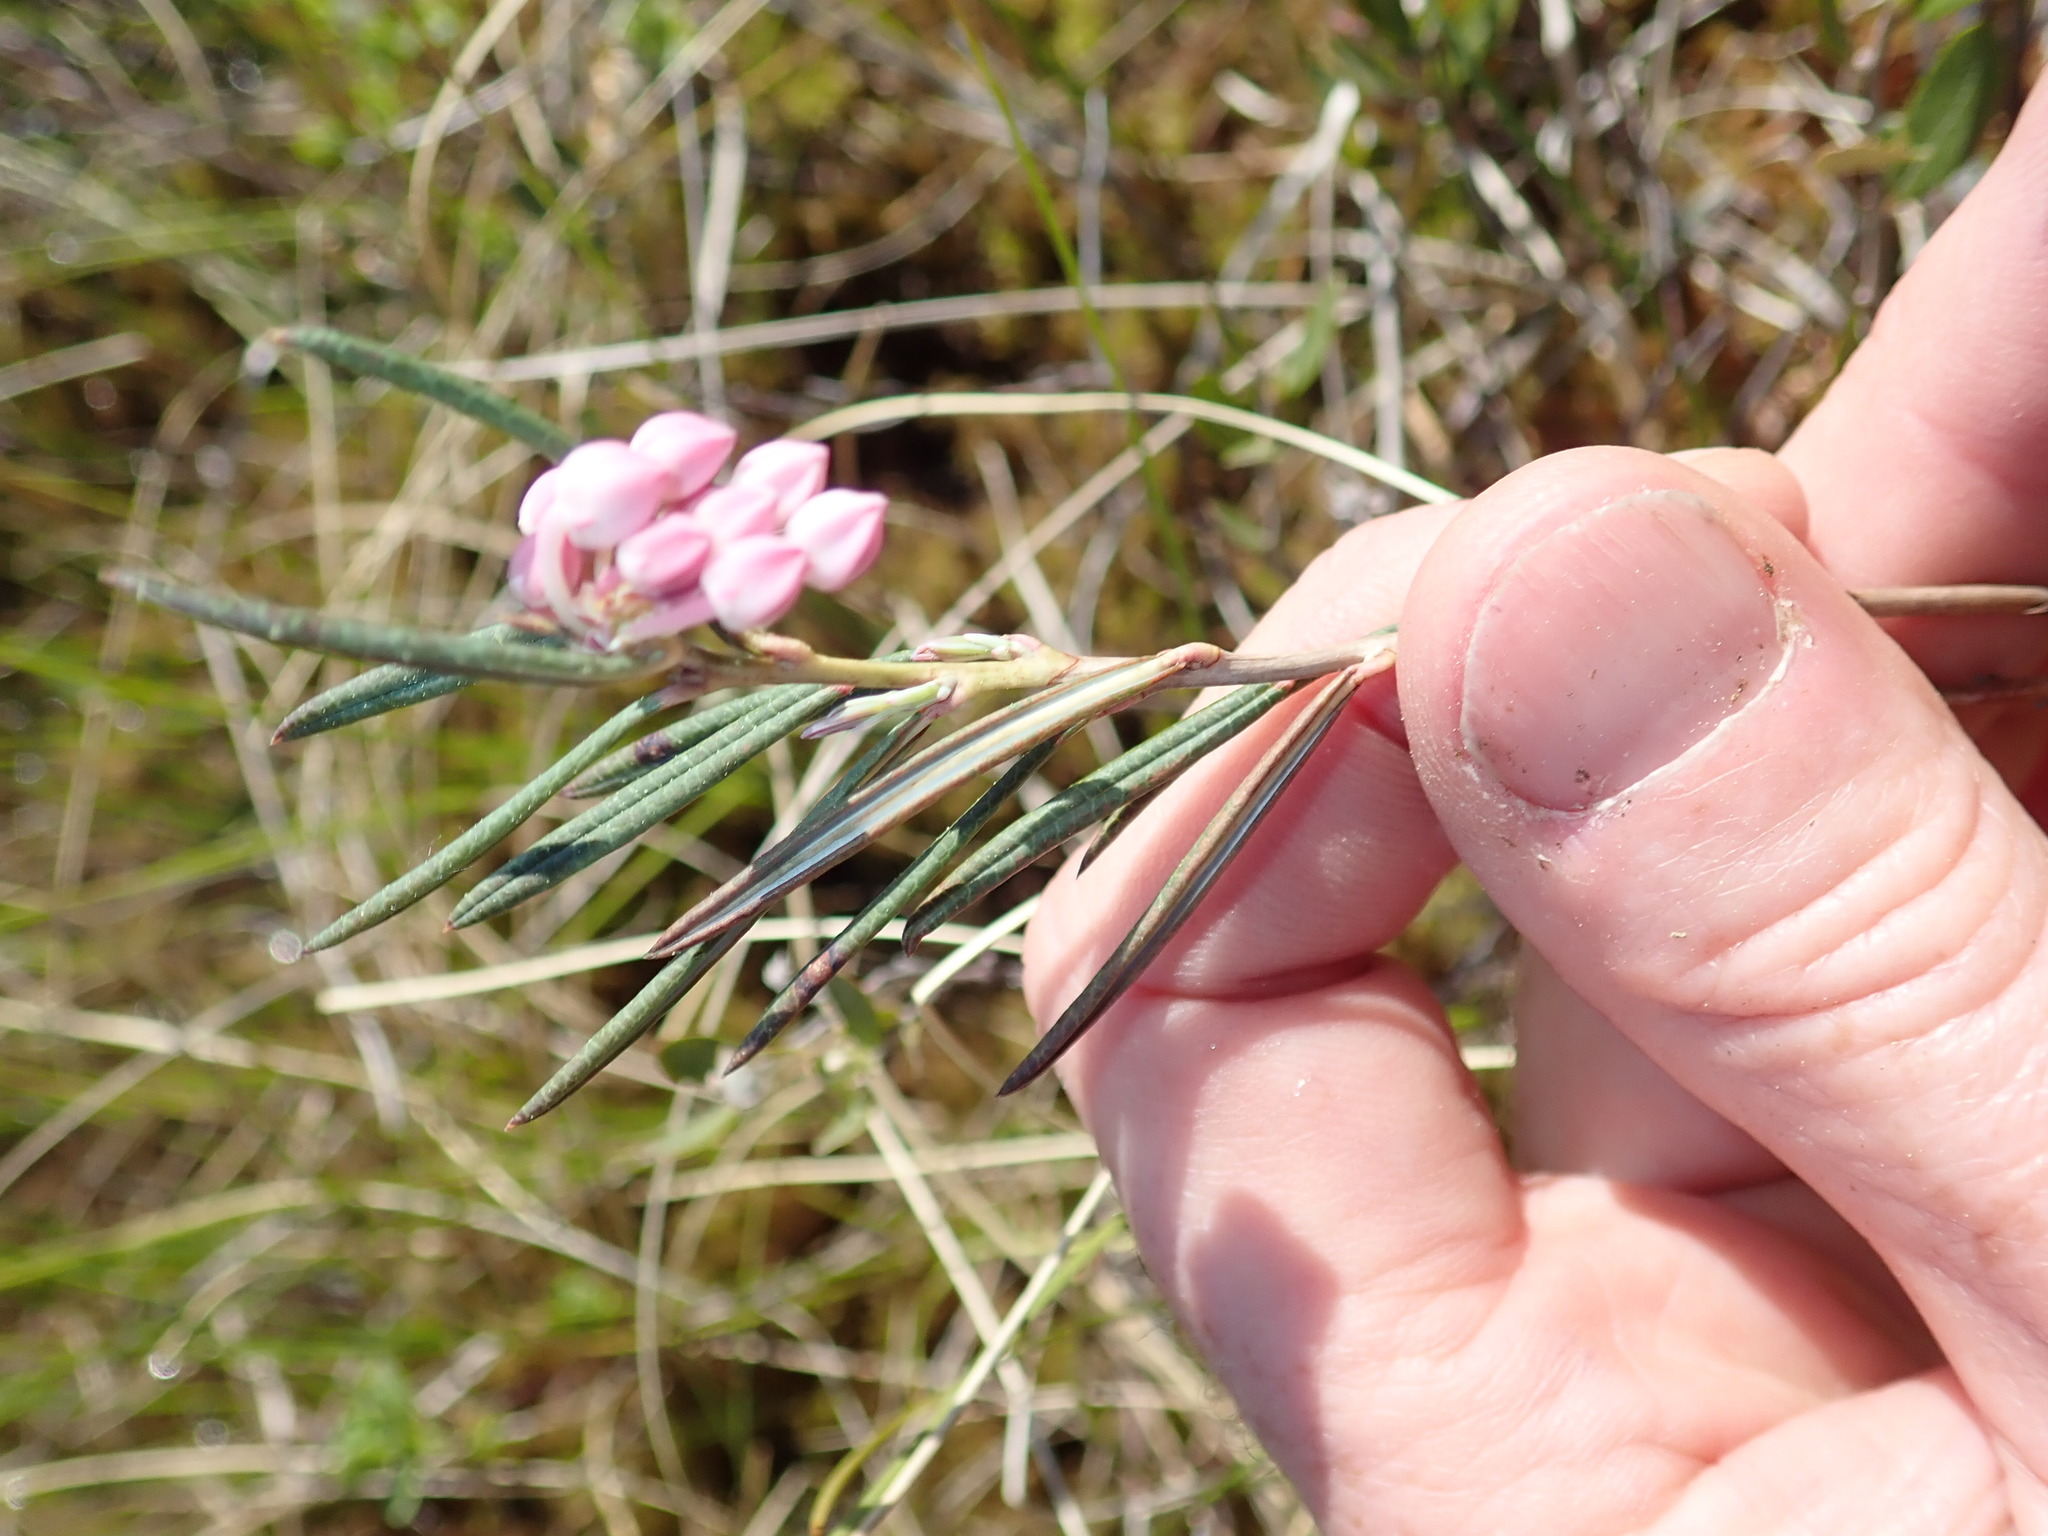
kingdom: Plantae
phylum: Tracheophyta
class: Magnoliopsida
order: Ericales
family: Ericaceae
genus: Andromeda
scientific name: Andromeda polifolia
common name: Bog-rosemary
